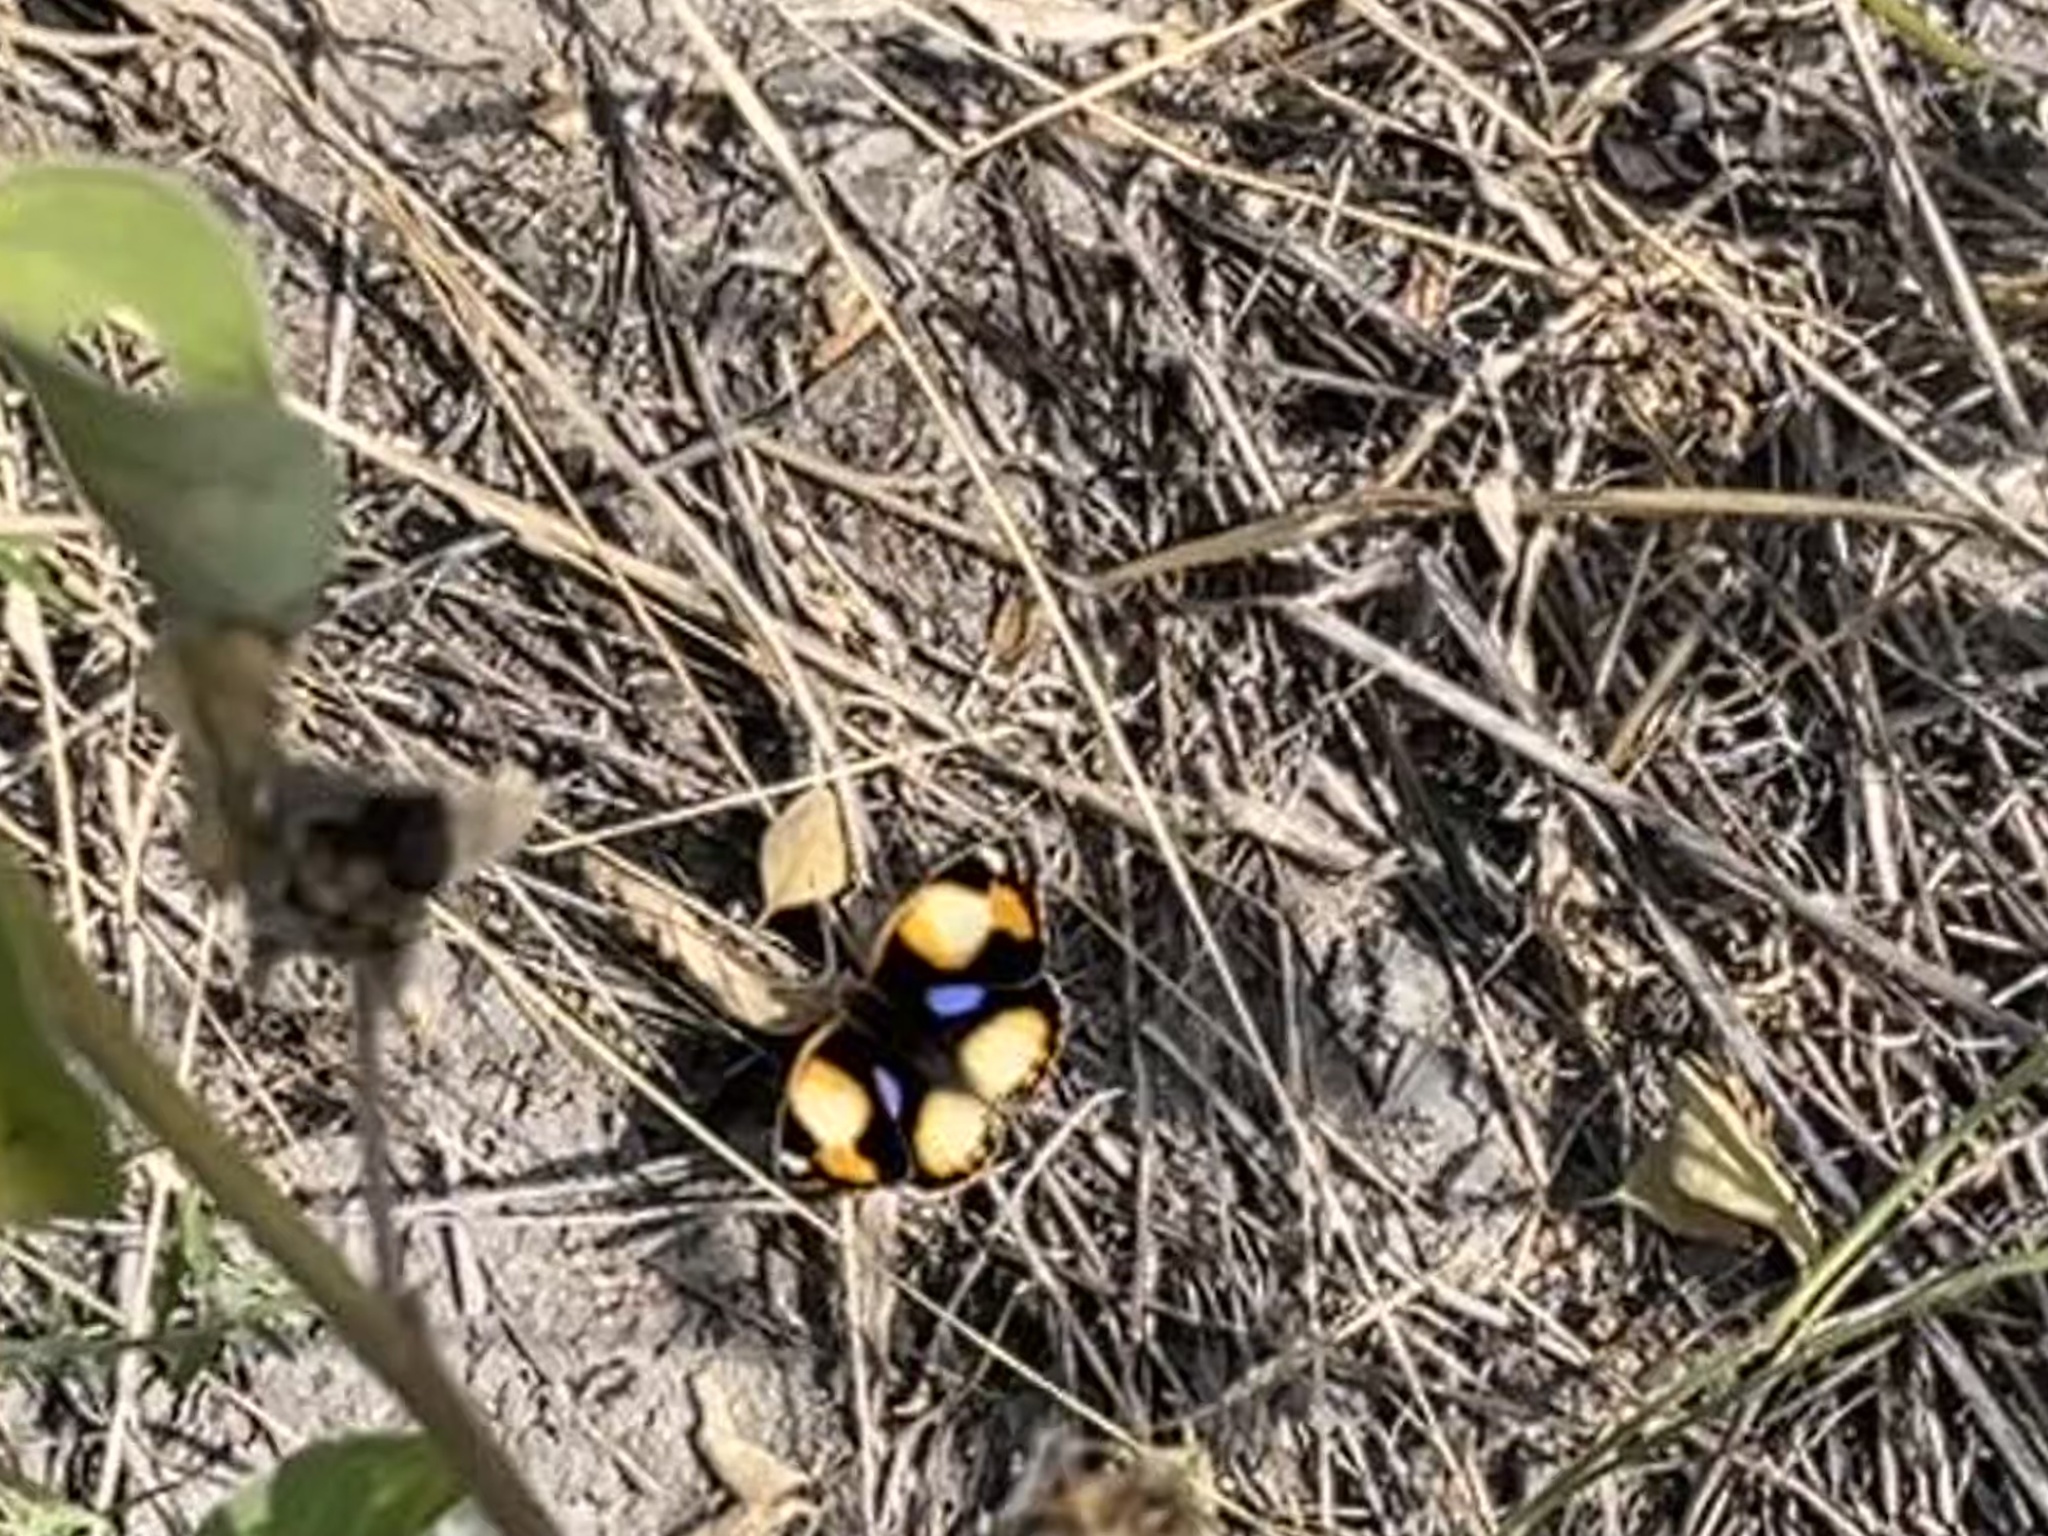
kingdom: Animalia
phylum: Arthropoda
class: Insecta
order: Lepidoptera
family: Nymphalidae
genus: Junonia
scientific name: Junonia hierta
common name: Yellow pansy
